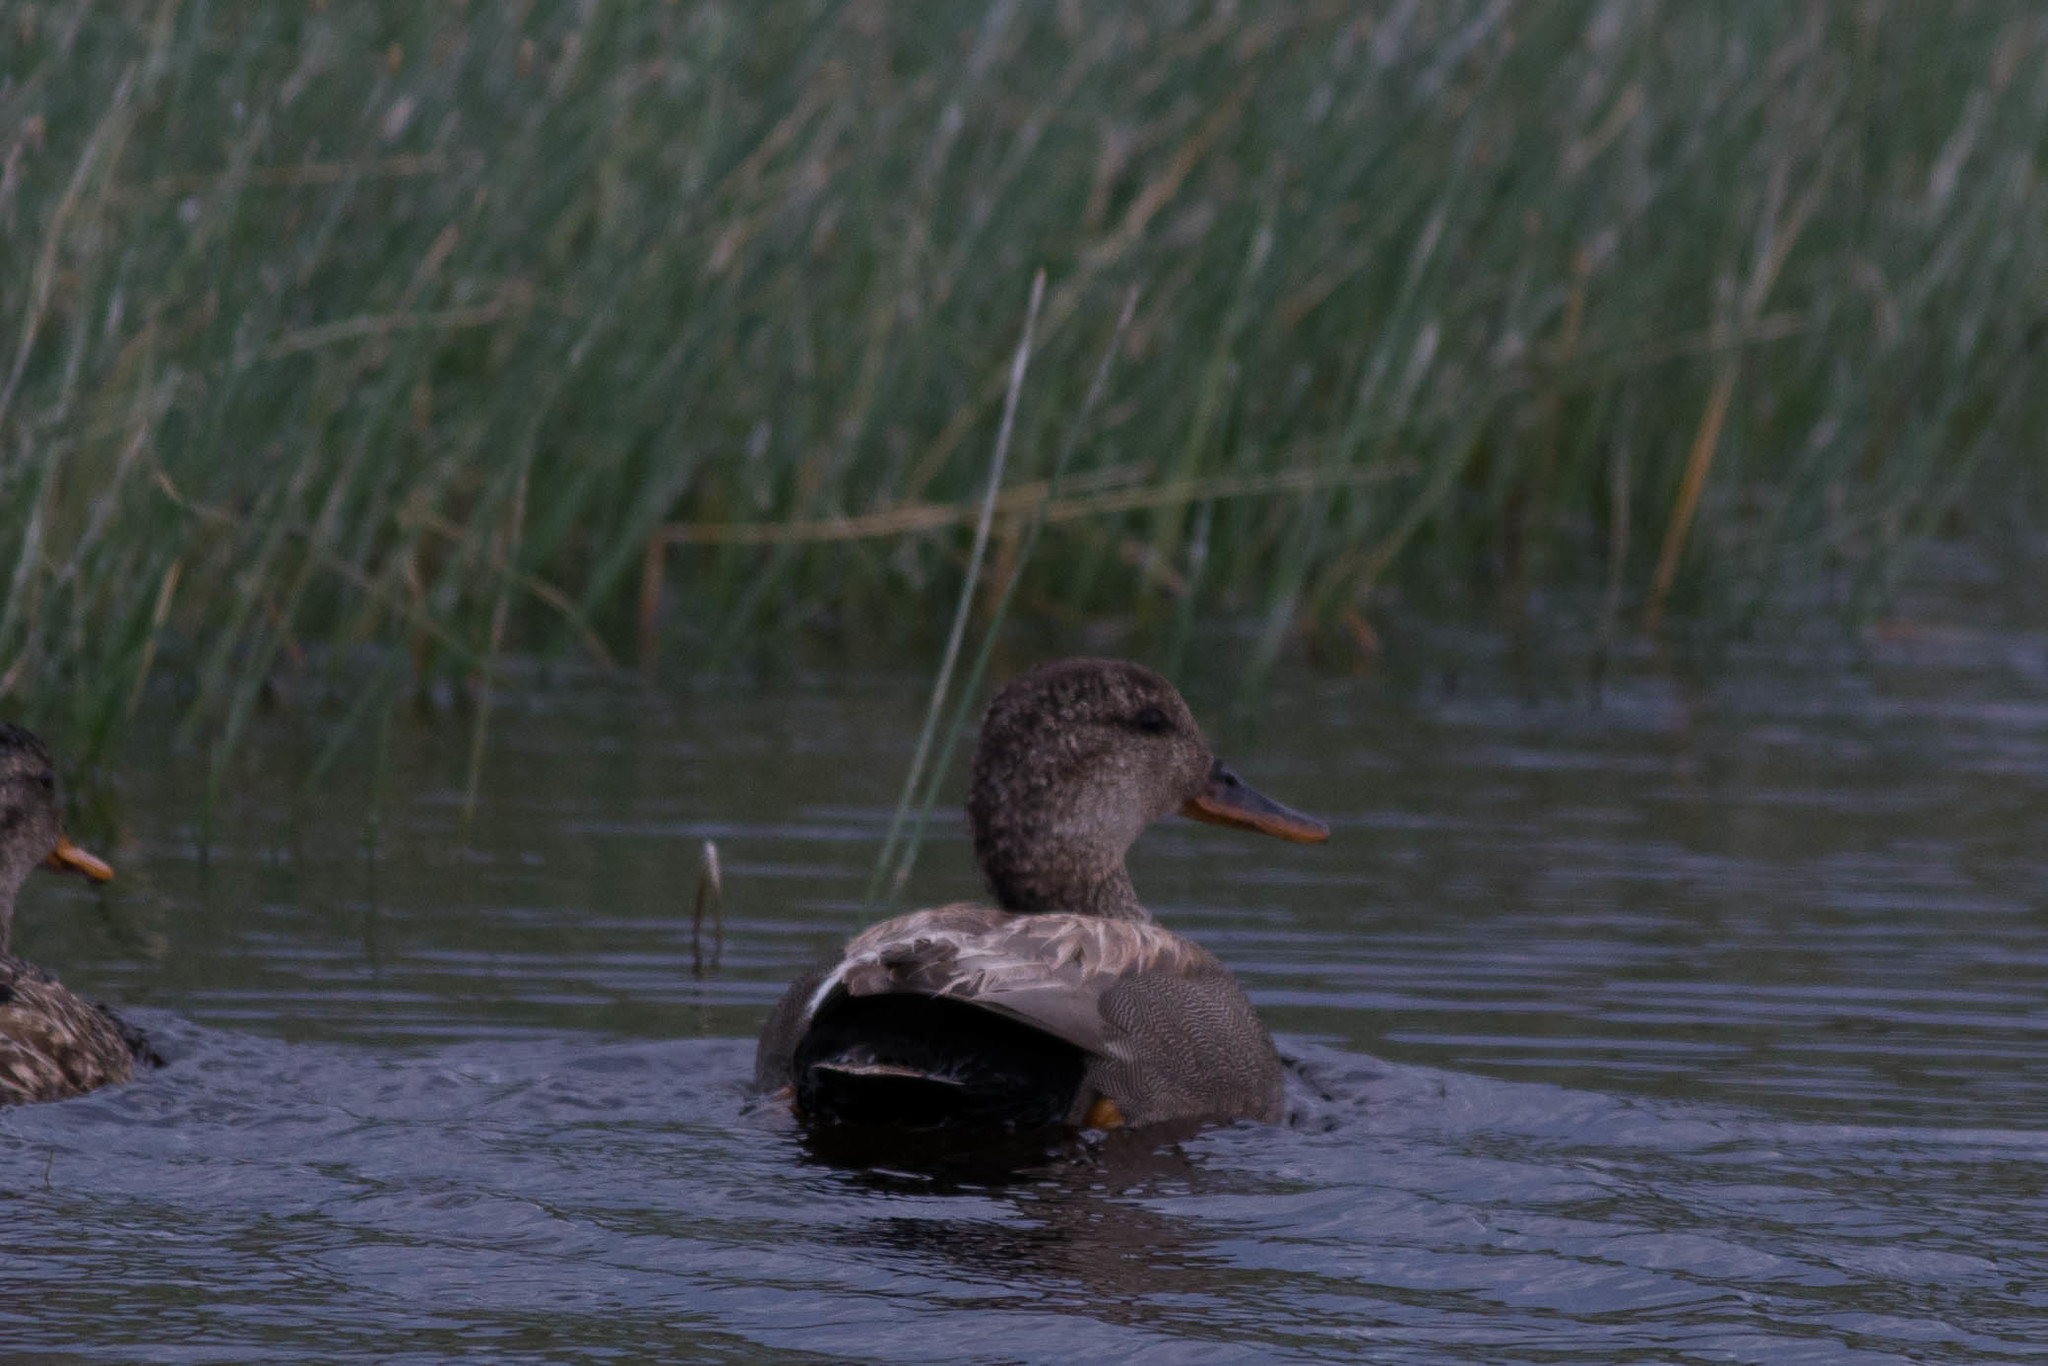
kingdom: Animalia
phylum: Chordata
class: Aves
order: Anseriformes
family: Anatidae
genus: Mareca
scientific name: Mareca strepera
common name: Gadwall
